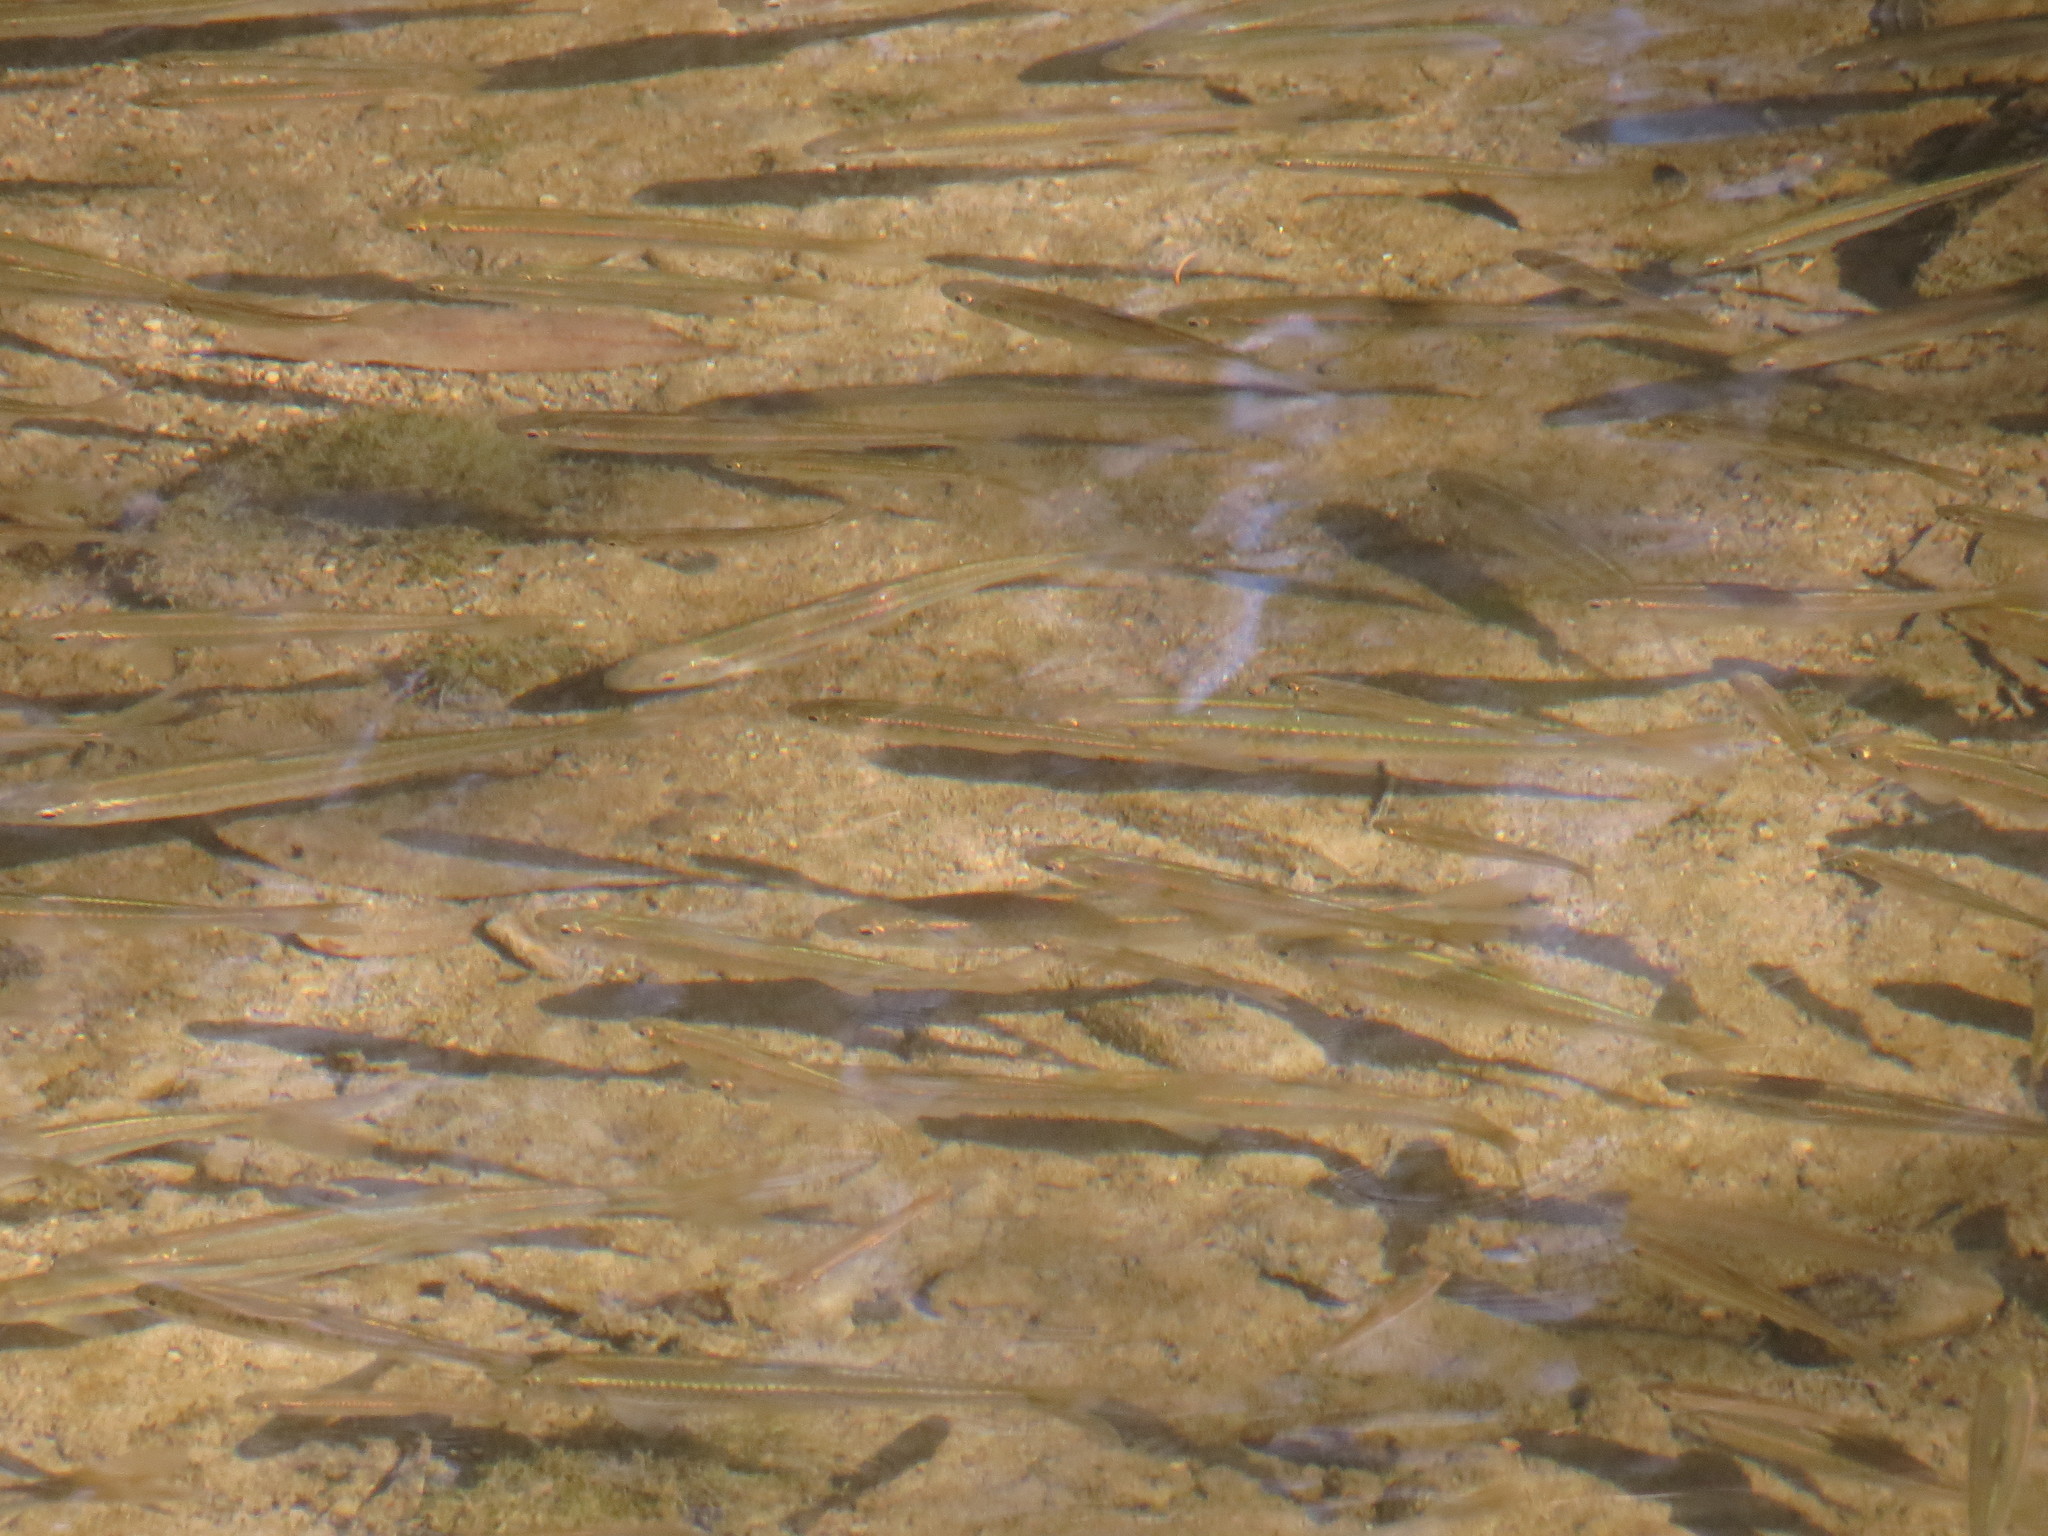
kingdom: Animalia
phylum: Chordata
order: Cypriniformes
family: Cyprinidae
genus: Luxilus
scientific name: Luxilus cornutus
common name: Common shiner
